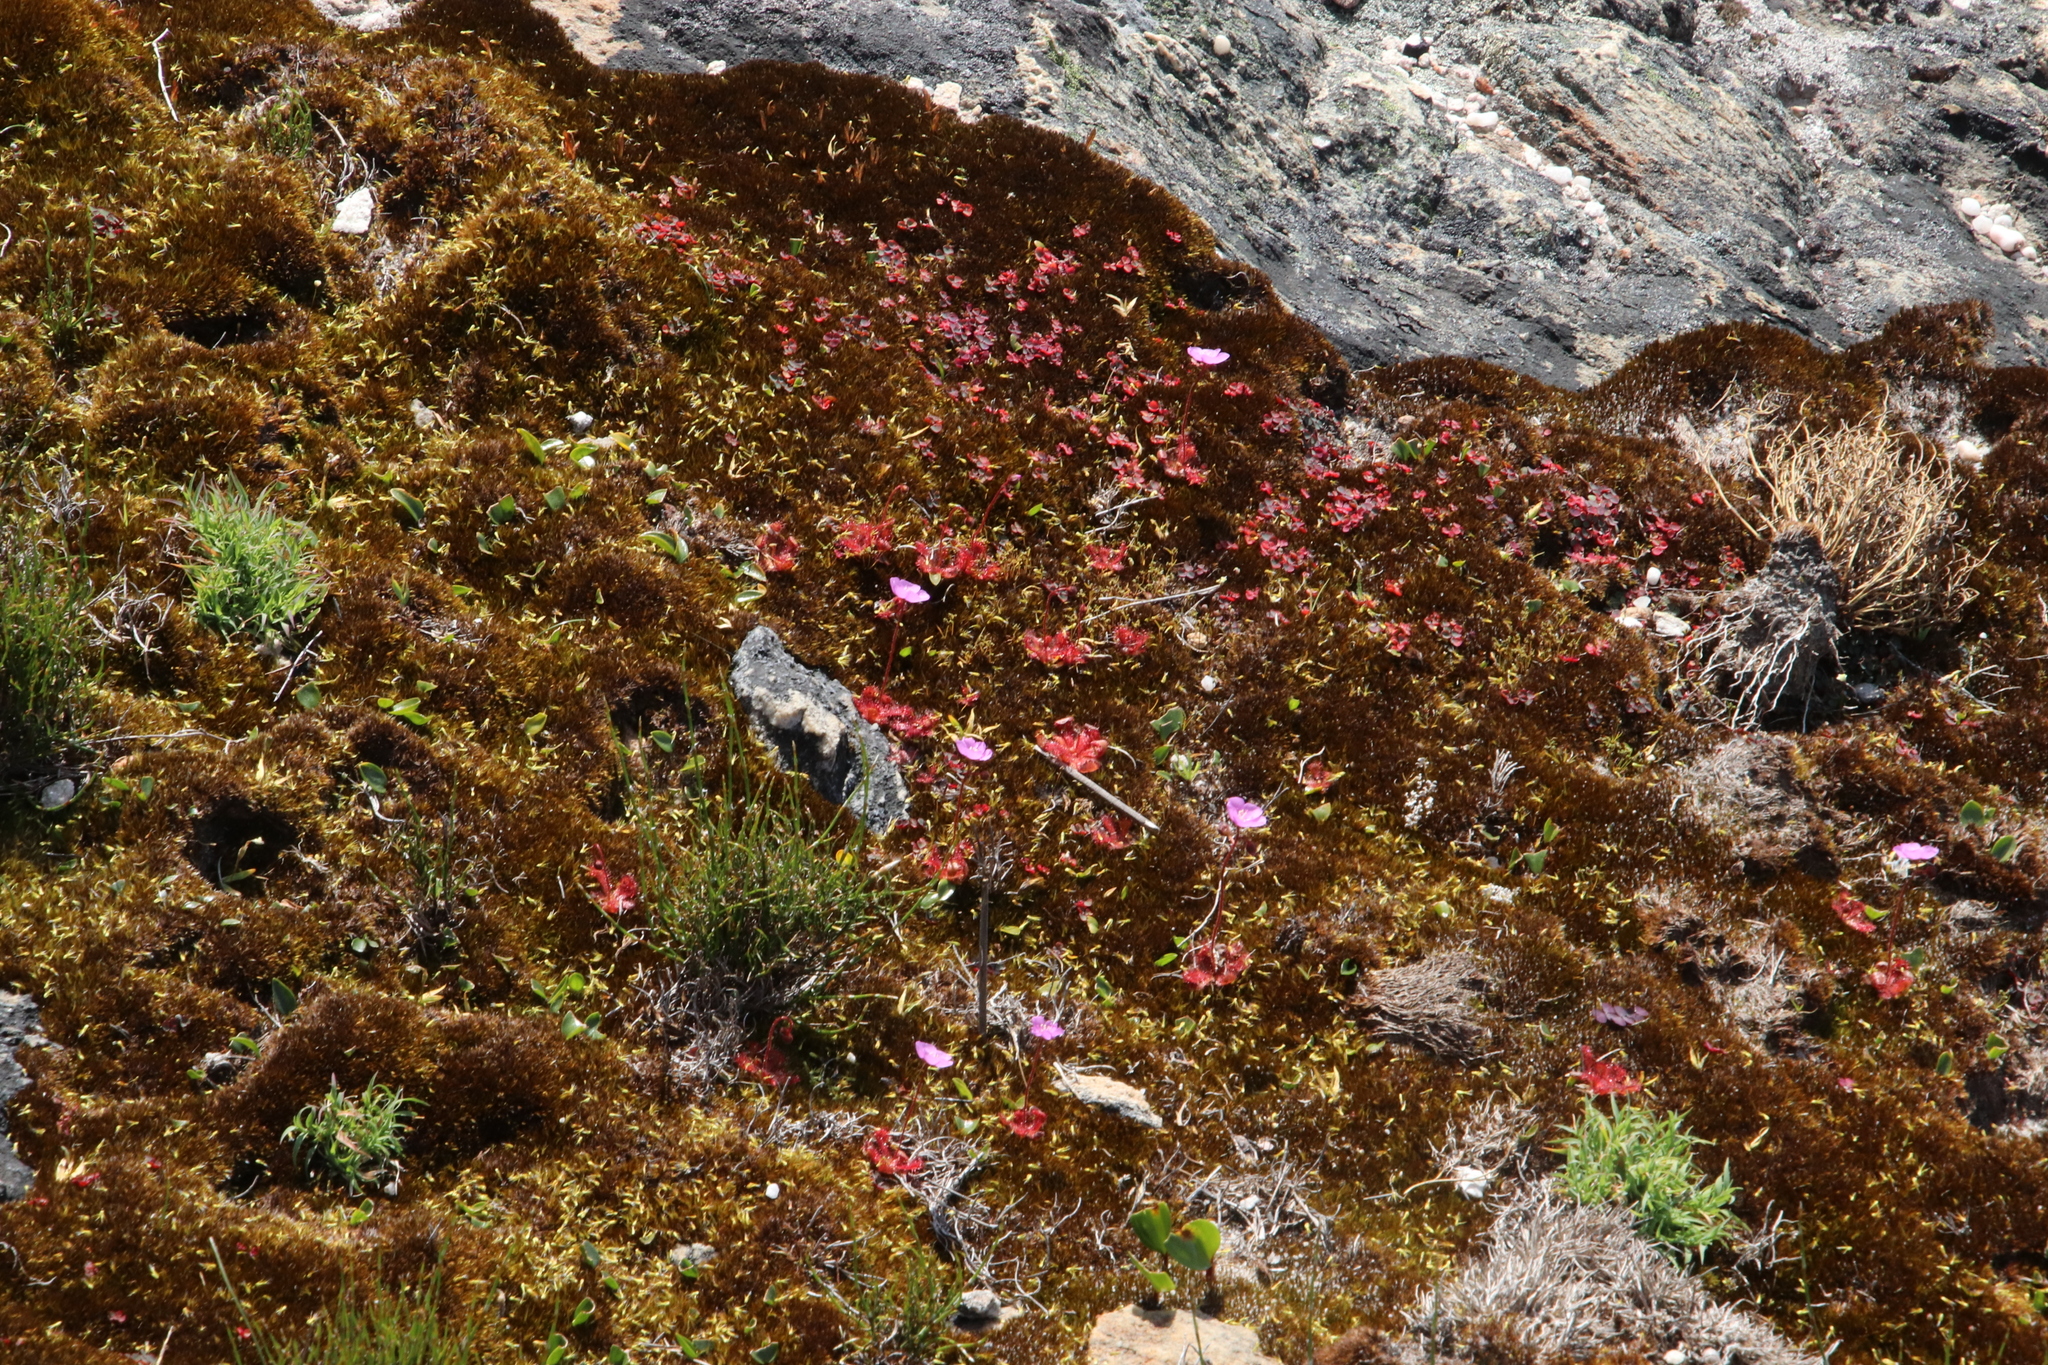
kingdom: Plantae
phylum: Tracheophyta
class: Magnoliopsida
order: Caryophyllales
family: Droseraceae
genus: Drosera
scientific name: Drosera trinervia
